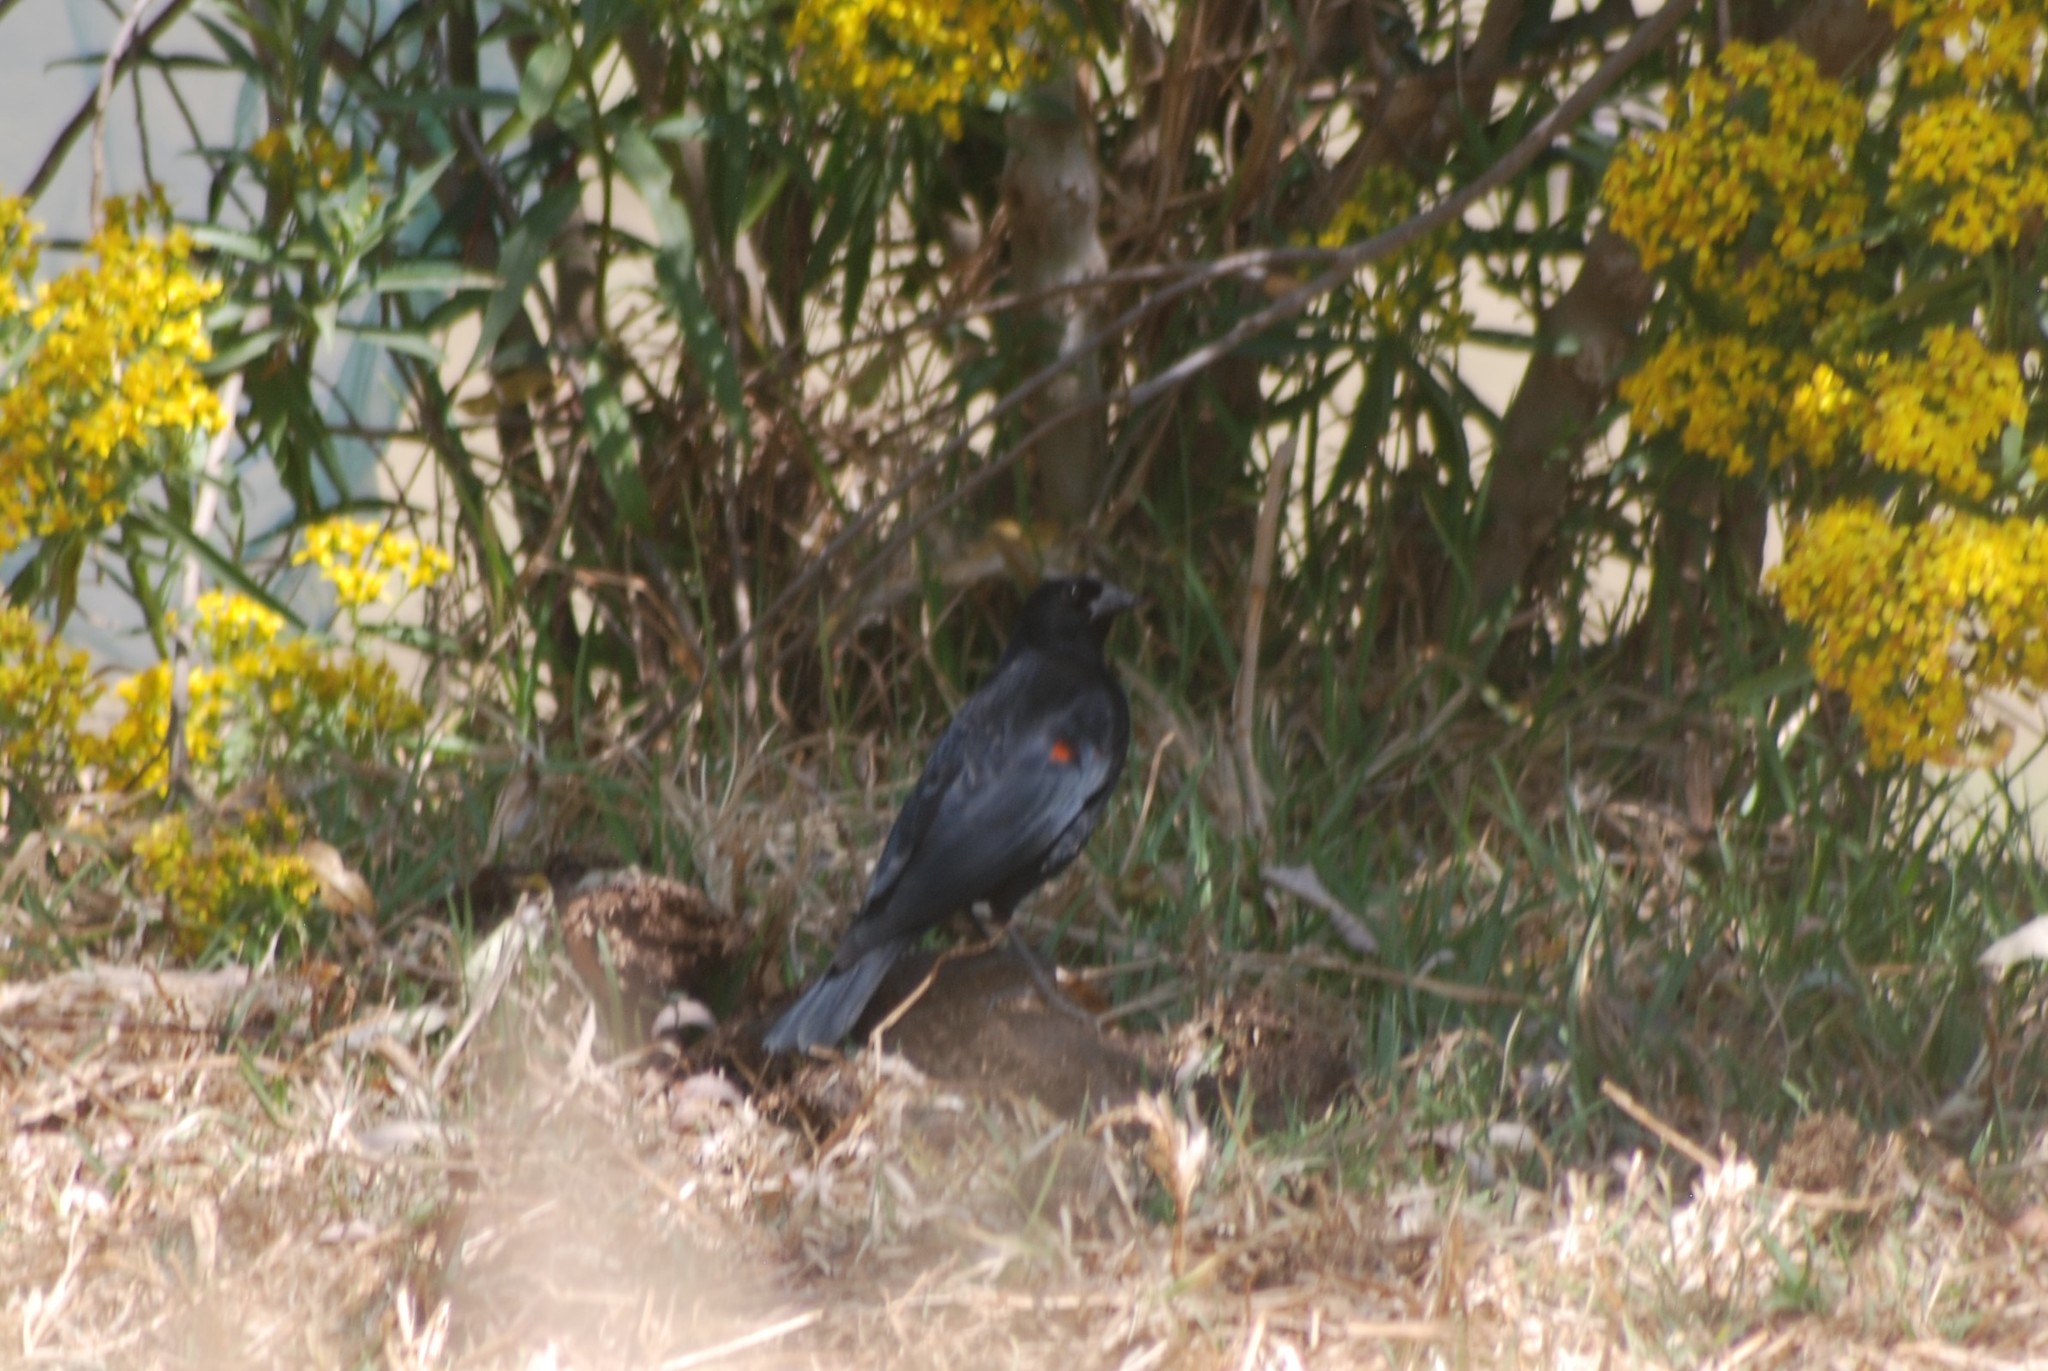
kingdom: Animalia
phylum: Chordata
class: Aves
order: Passeriformes
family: Icteridae
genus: Agelaius
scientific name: Agelaius phoeniceus
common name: Red-winged blackbird
